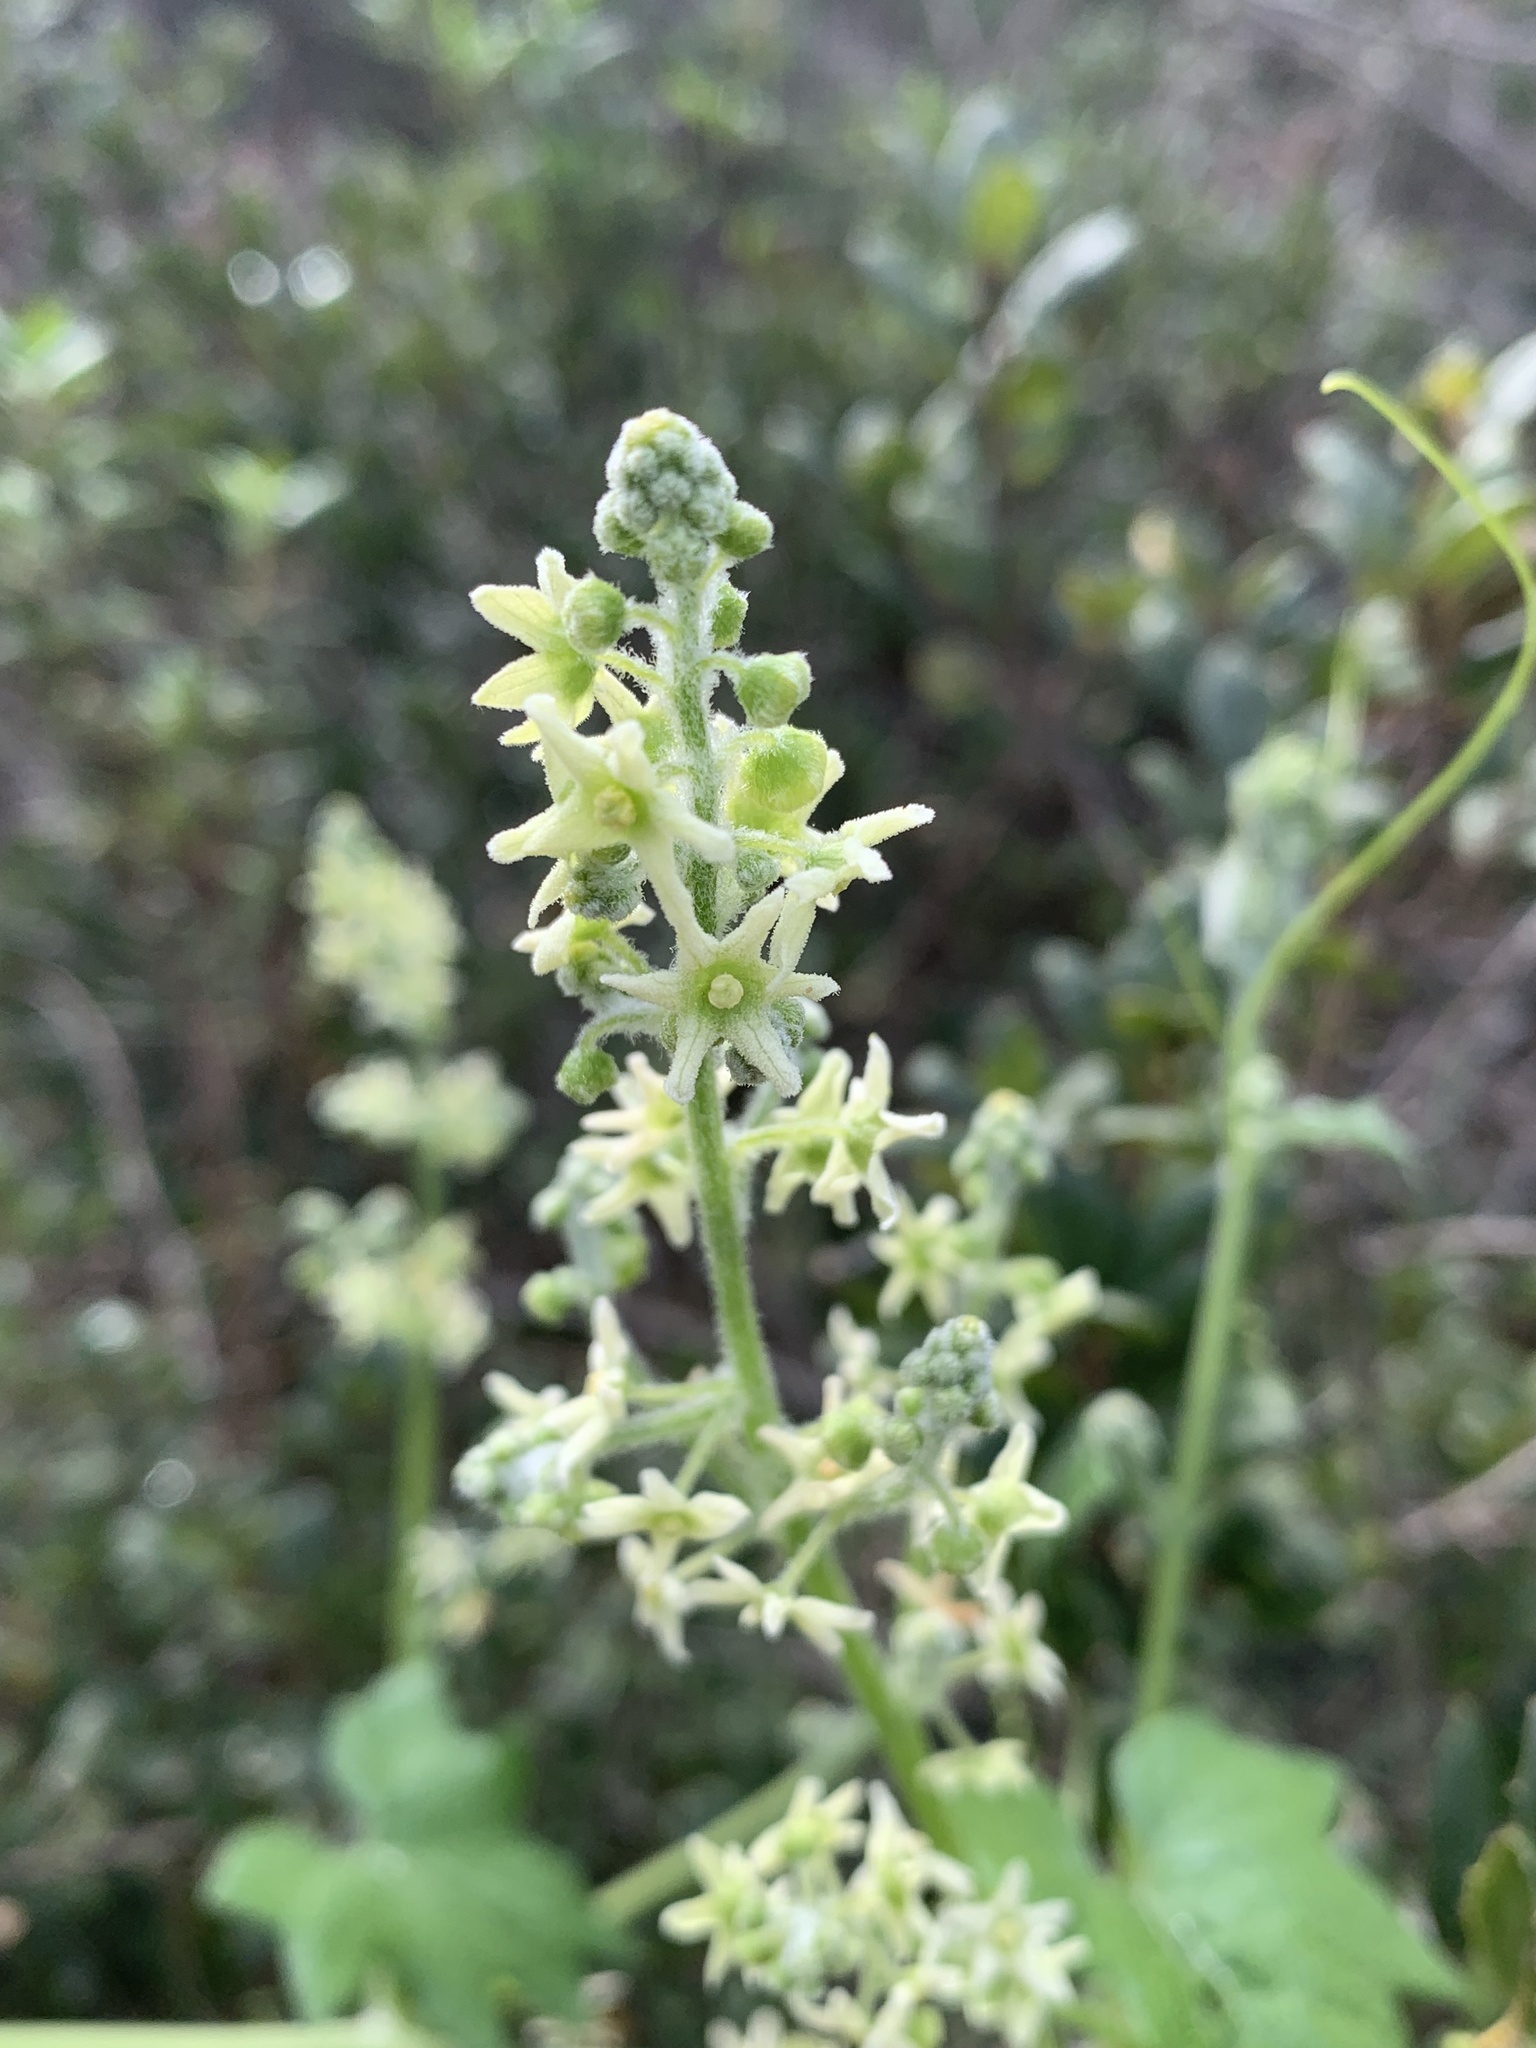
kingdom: Plantae
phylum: Tracheophyta
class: Magnoliopsida
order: Cucurbitales
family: Cucurbitaceae
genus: Marah
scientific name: Marah fabacea
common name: California manroot
